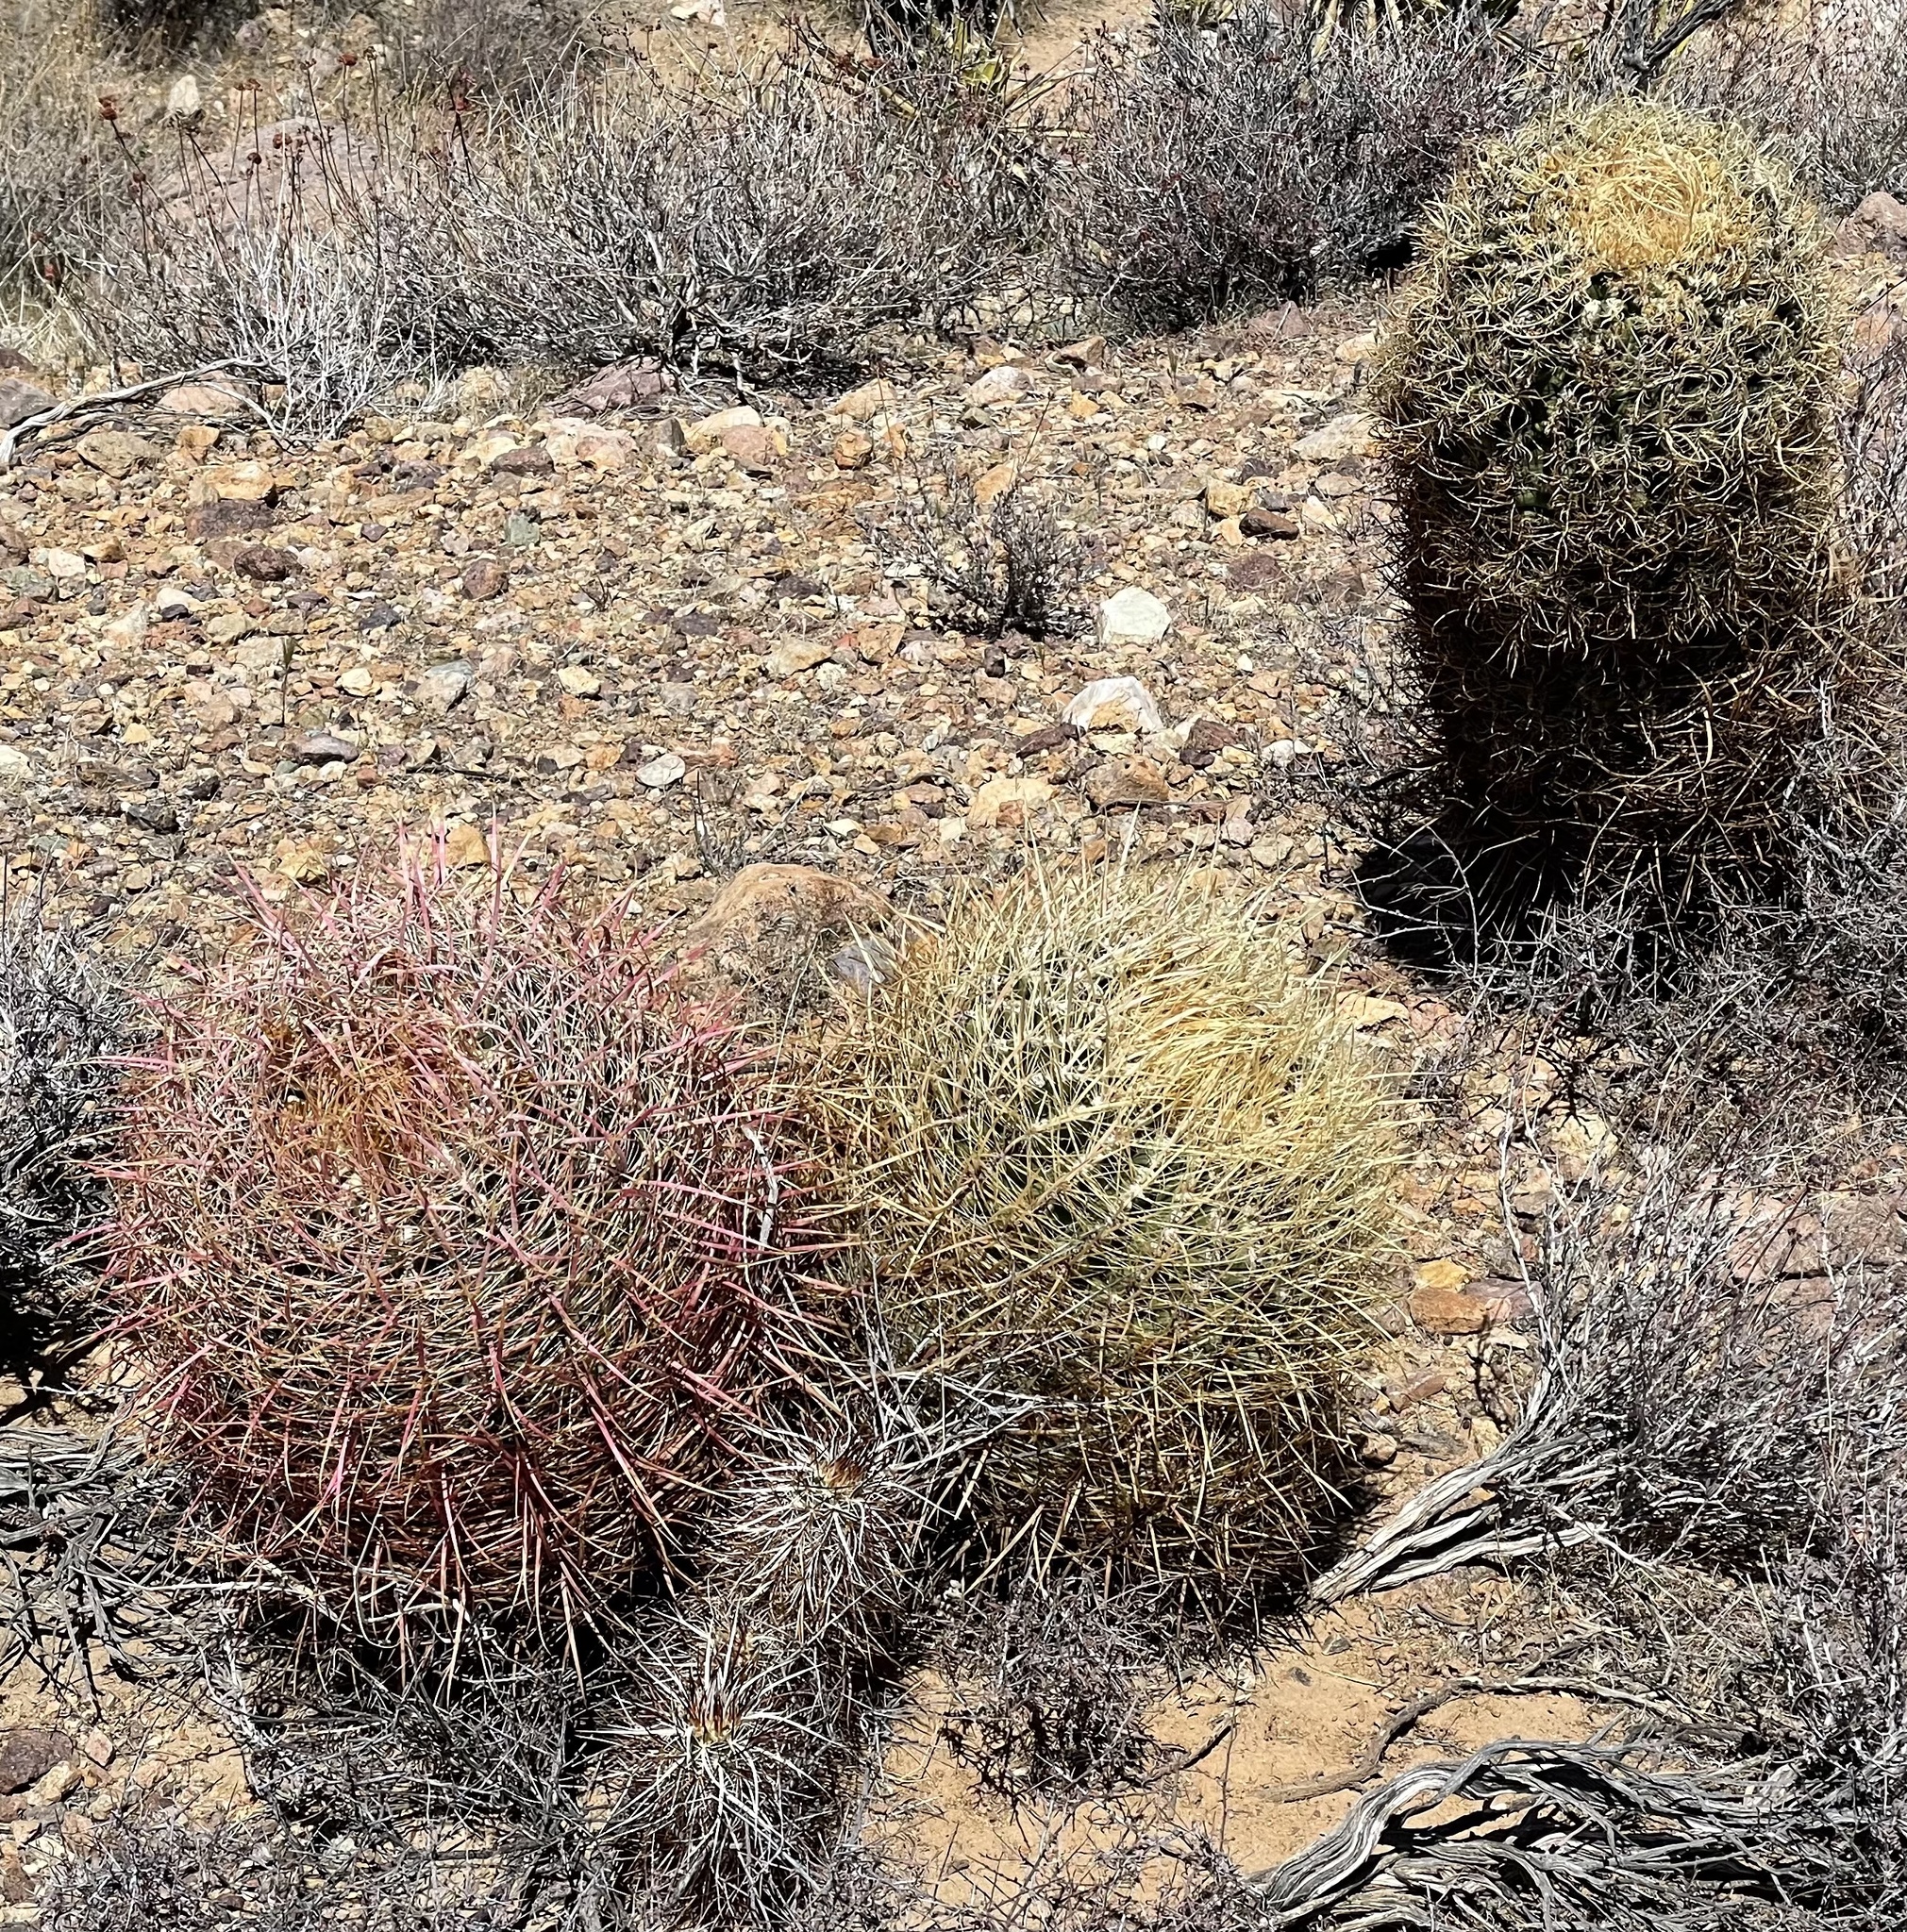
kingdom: Plantae
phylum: Tracheophyta
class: Magnoliopsida
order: Caryophyllales
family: Cactaceae
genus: Ferocactus
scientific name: Ferocactus cylindraceus
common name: California barrel cactus
